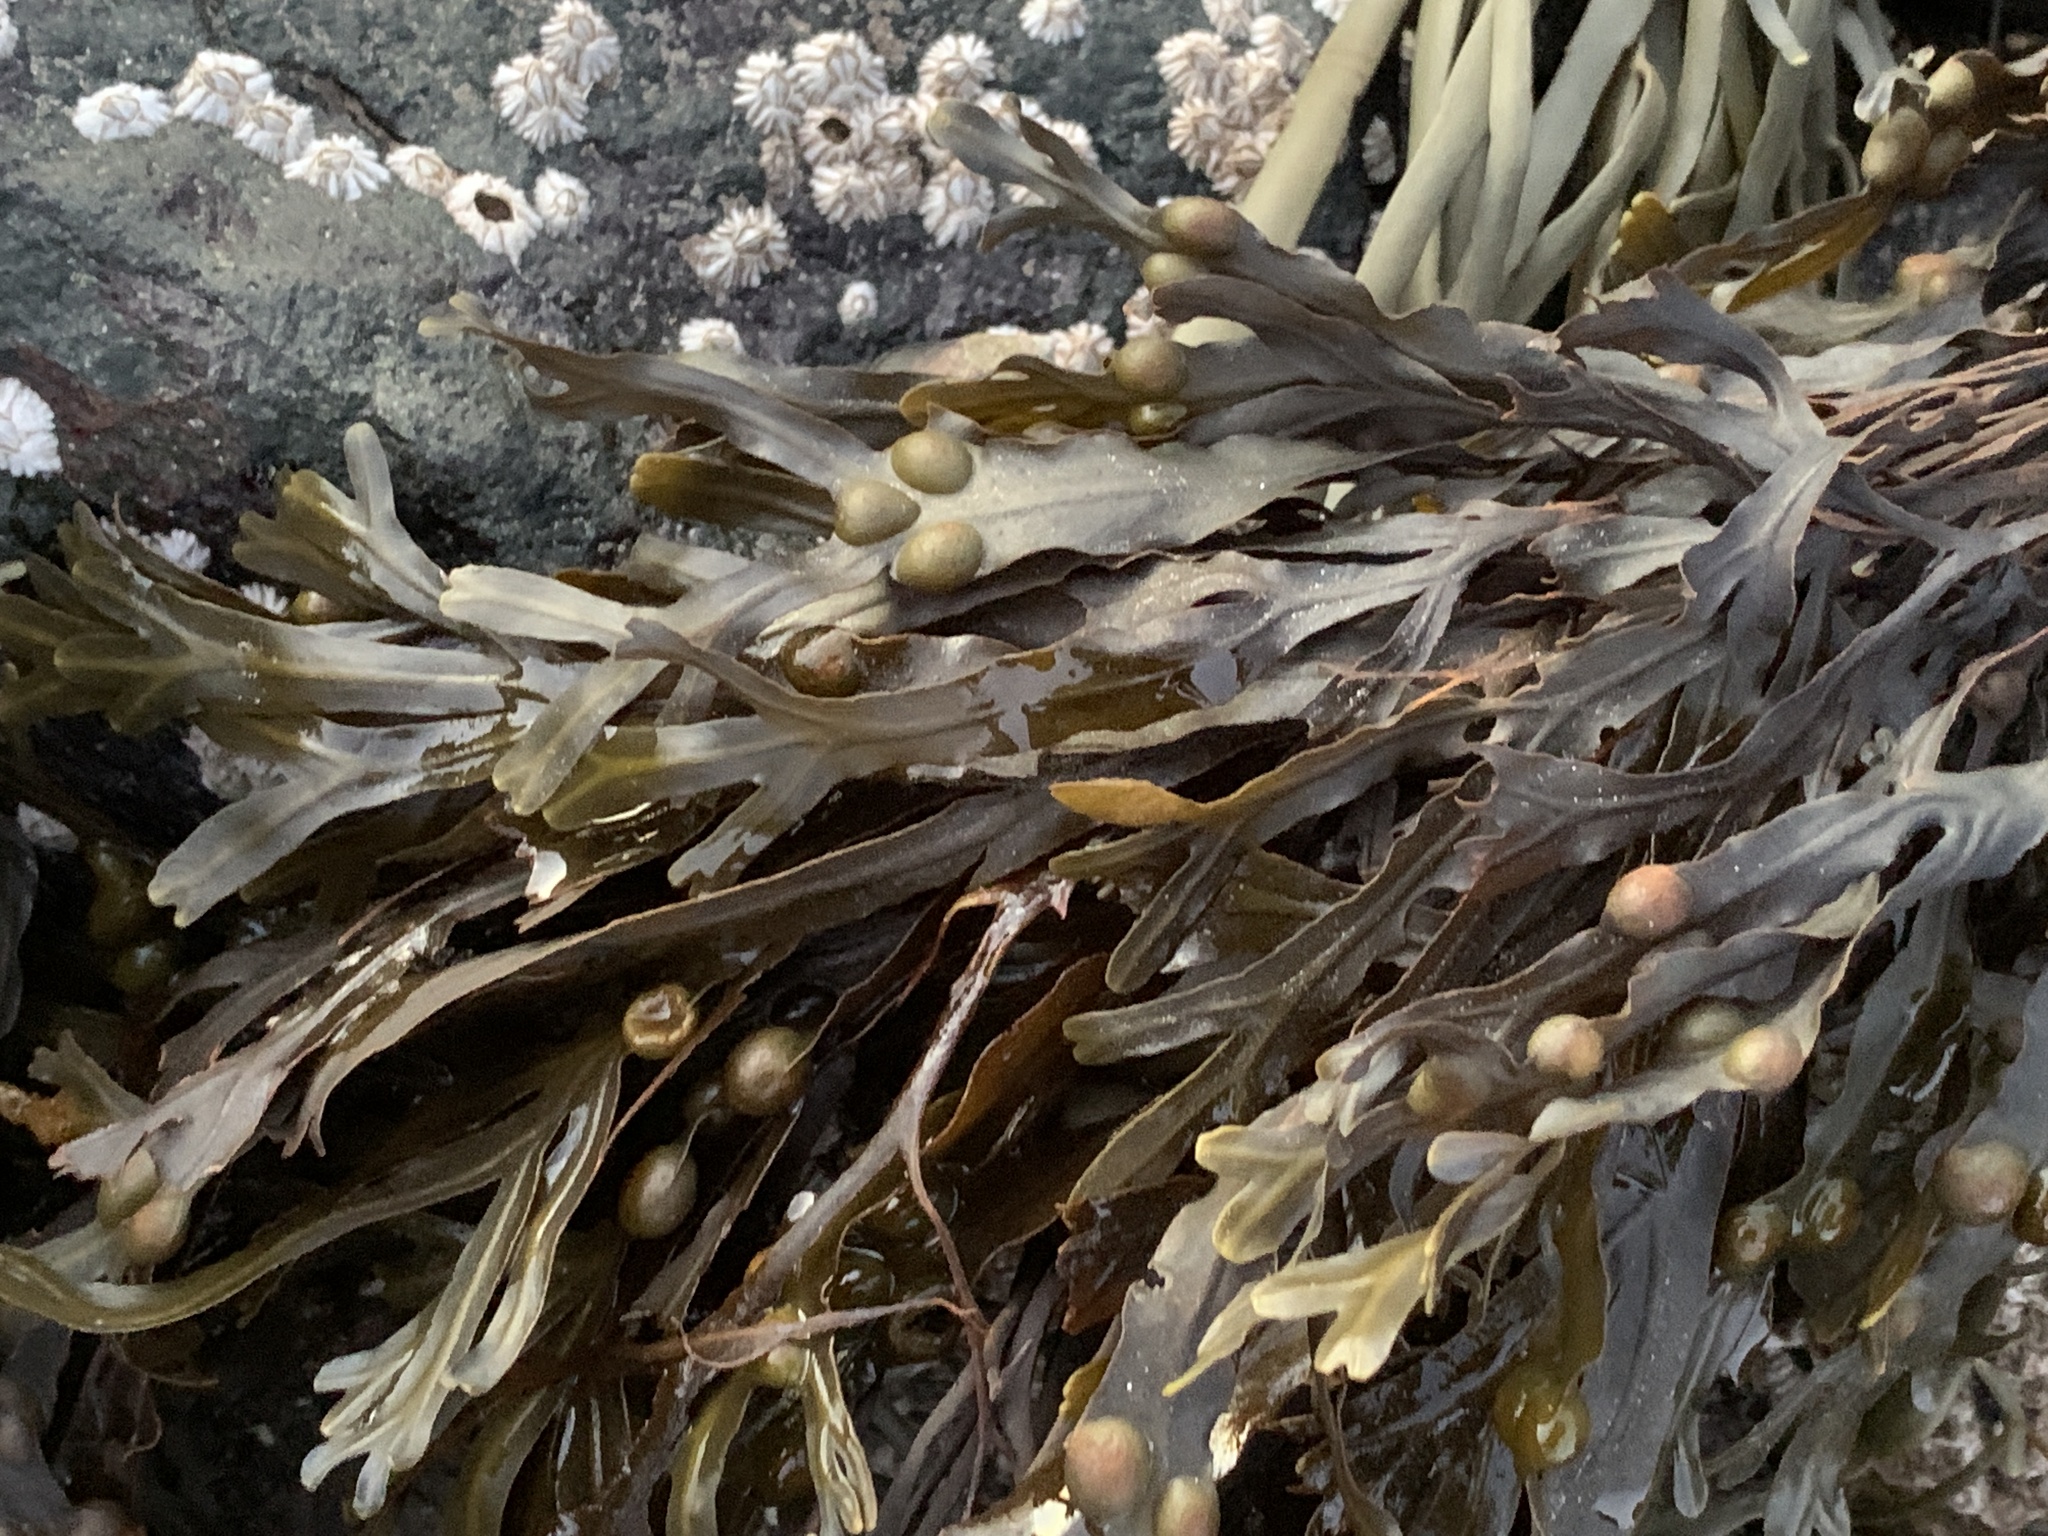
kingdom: Chromista
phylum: Ochrophyta
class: Phaeophyceae
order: Fucales
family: Fucaceae
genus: Fucus
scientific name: Fucus vesiculosus
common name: Bladder wrack
